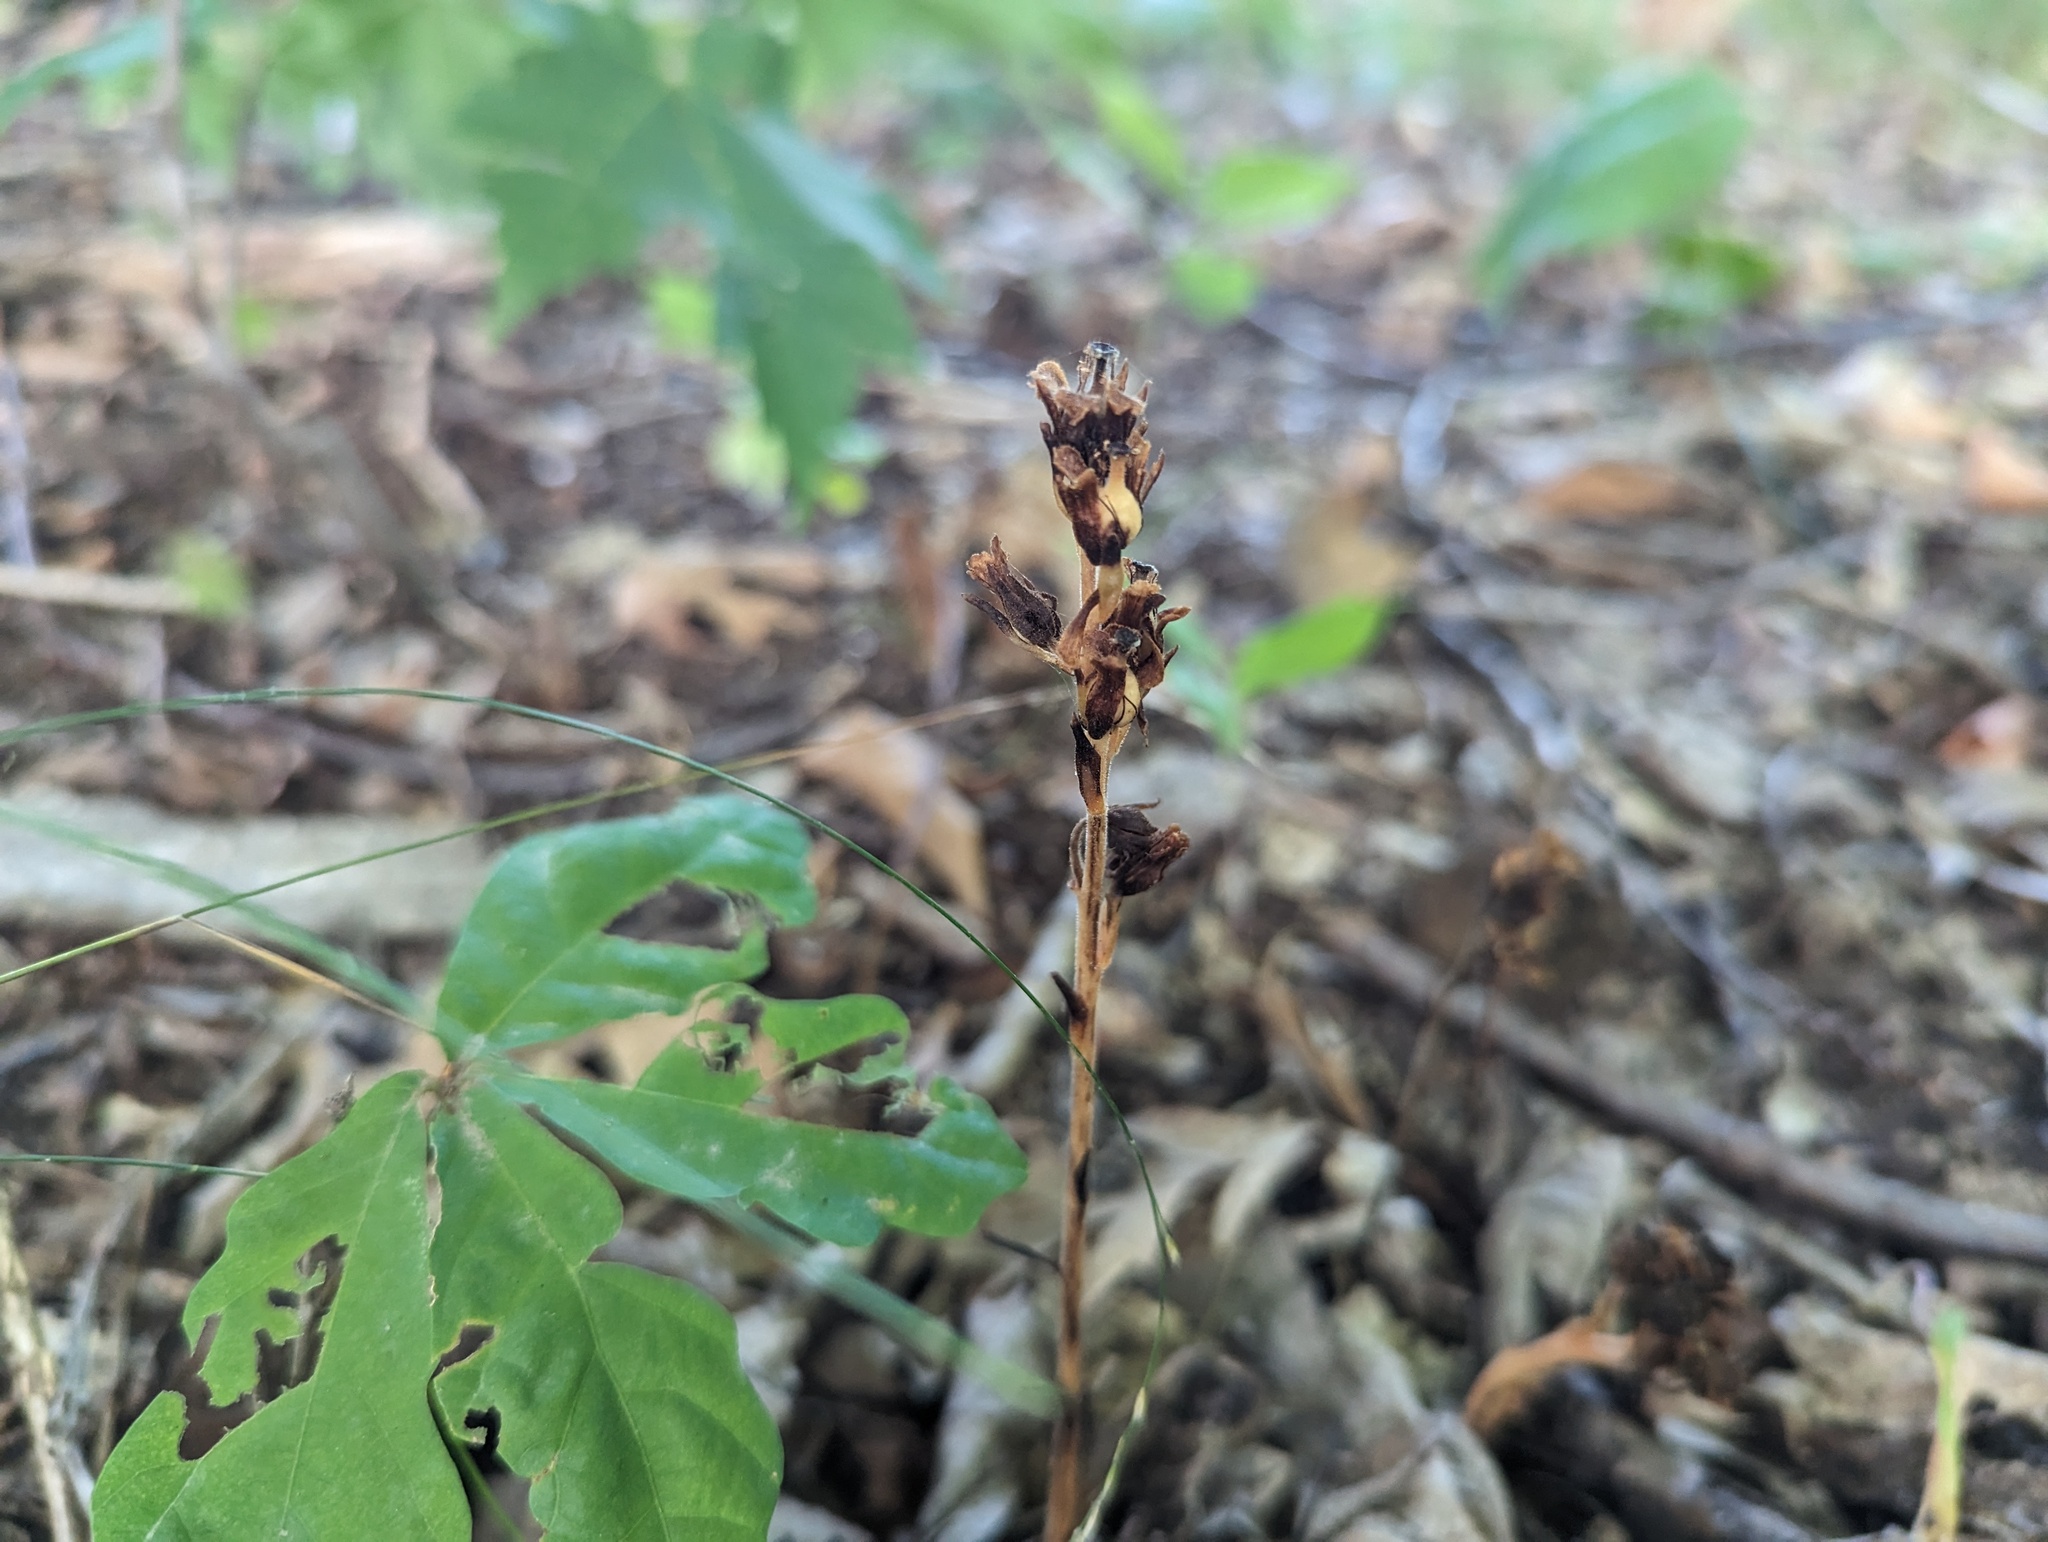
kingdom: Plantae
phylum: Tracheophyta
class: Magnoliopsida
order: Ericales
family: Ericaceae
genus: Hypopitys
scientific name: Hypopitys monotropa
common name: Yellow bird's-nest
